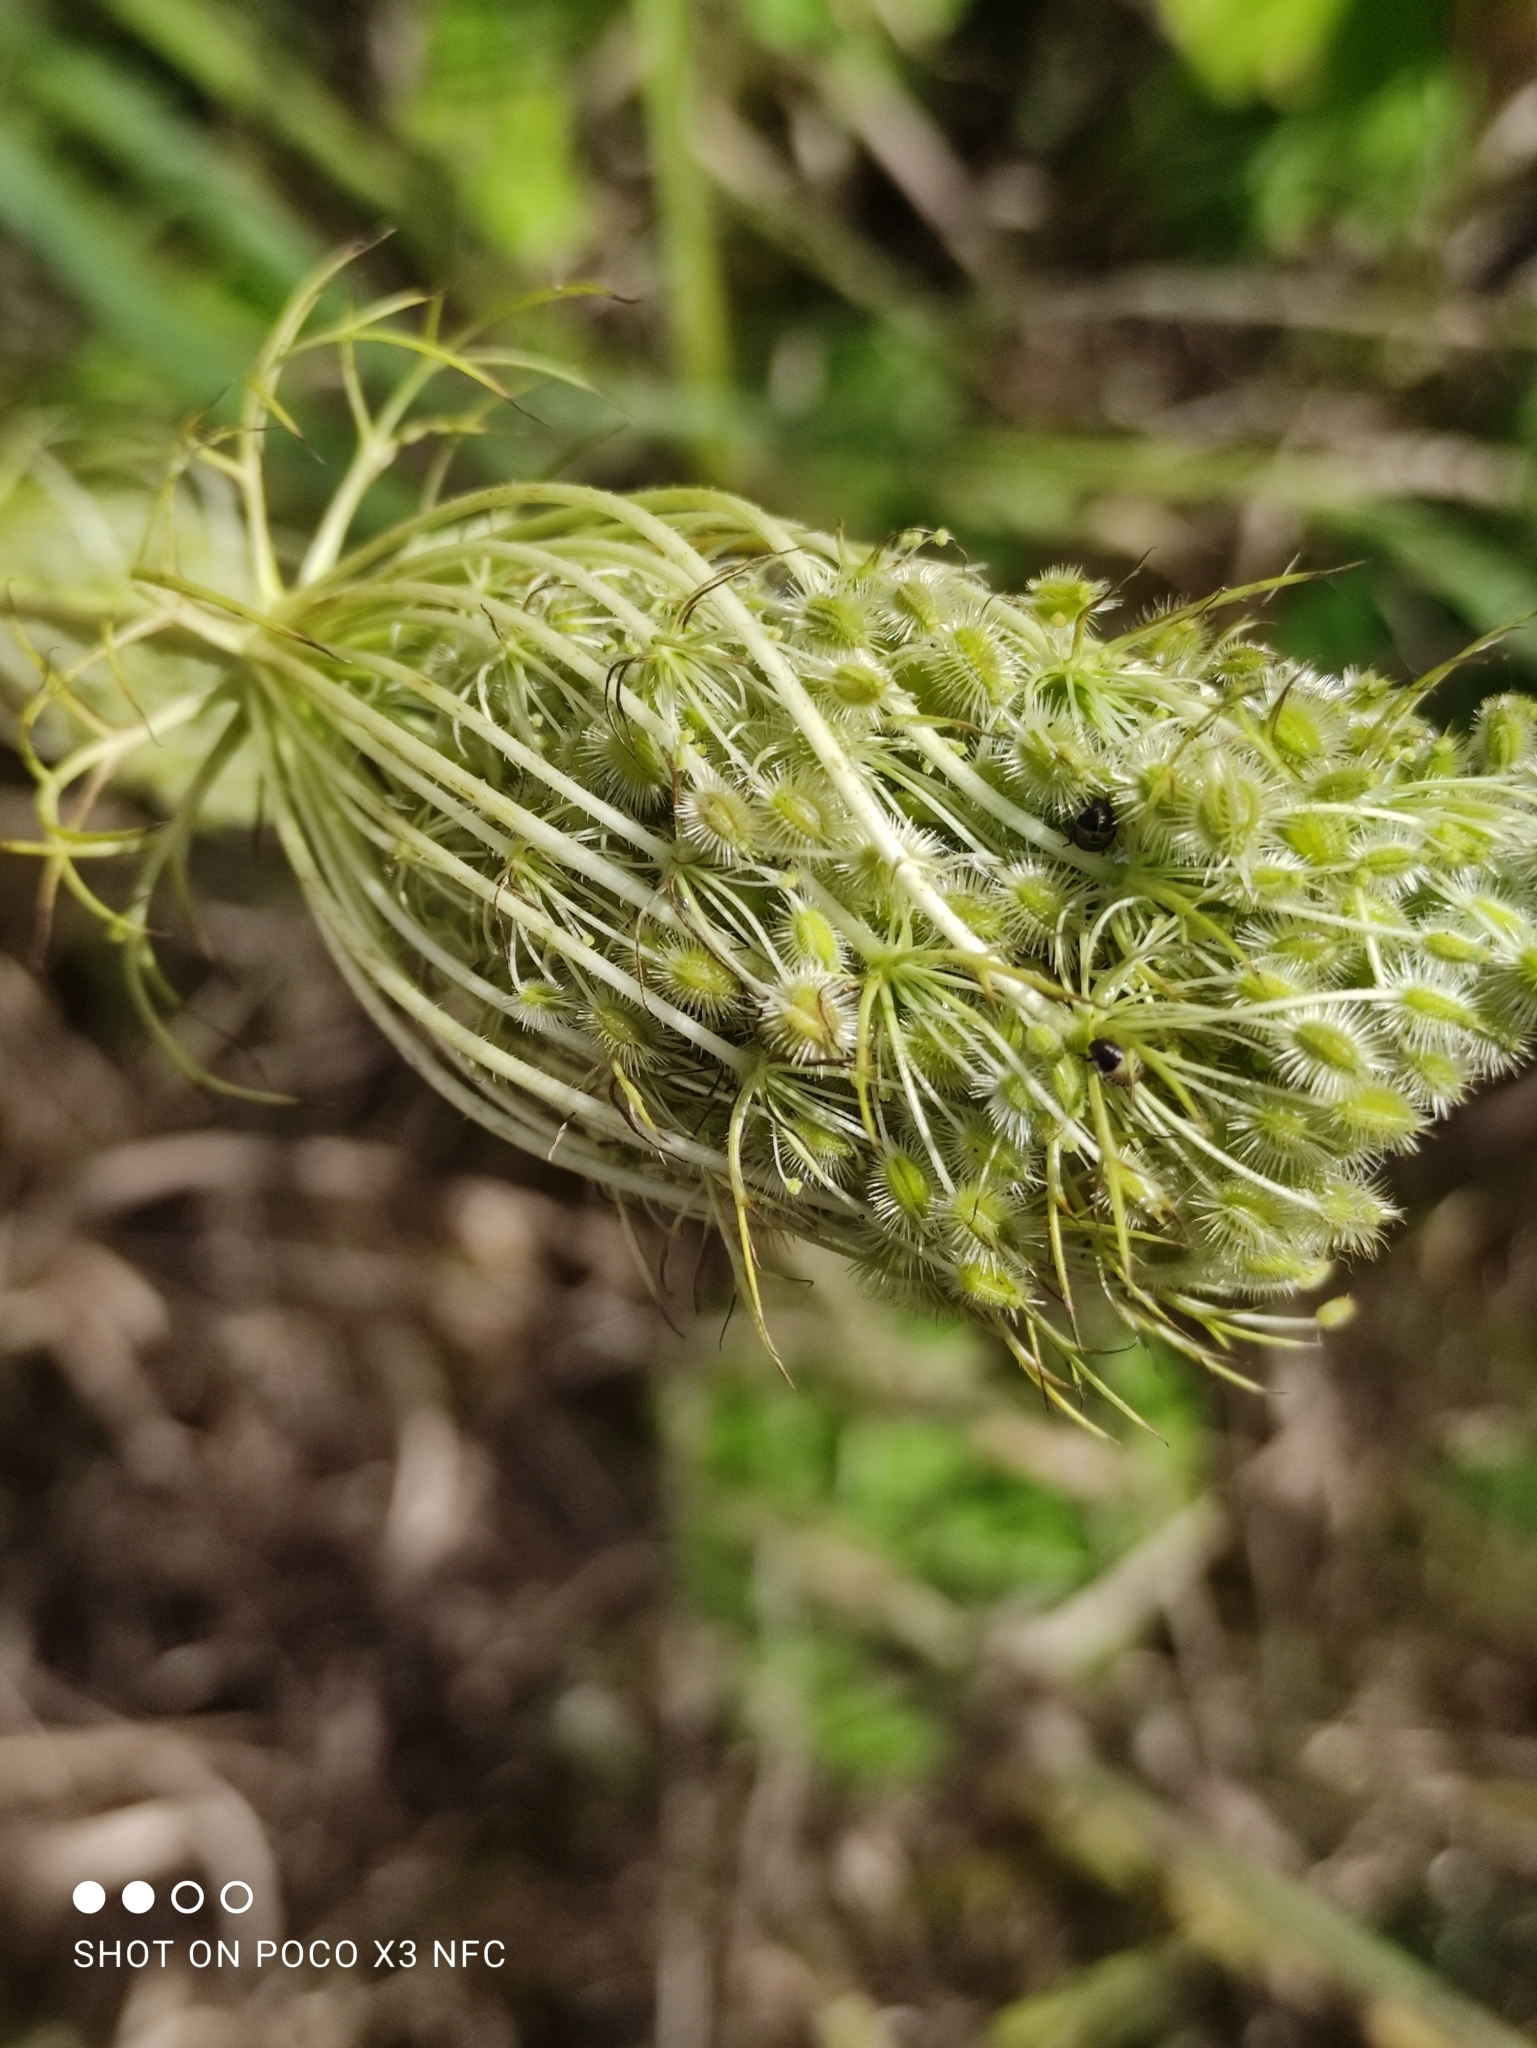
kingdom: Plantae
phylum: Tracheophyta
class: Magnoliopsida
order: Apiales
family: Apiaceae
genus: Daucus
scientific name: Daucus carota
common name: Wild carrot
